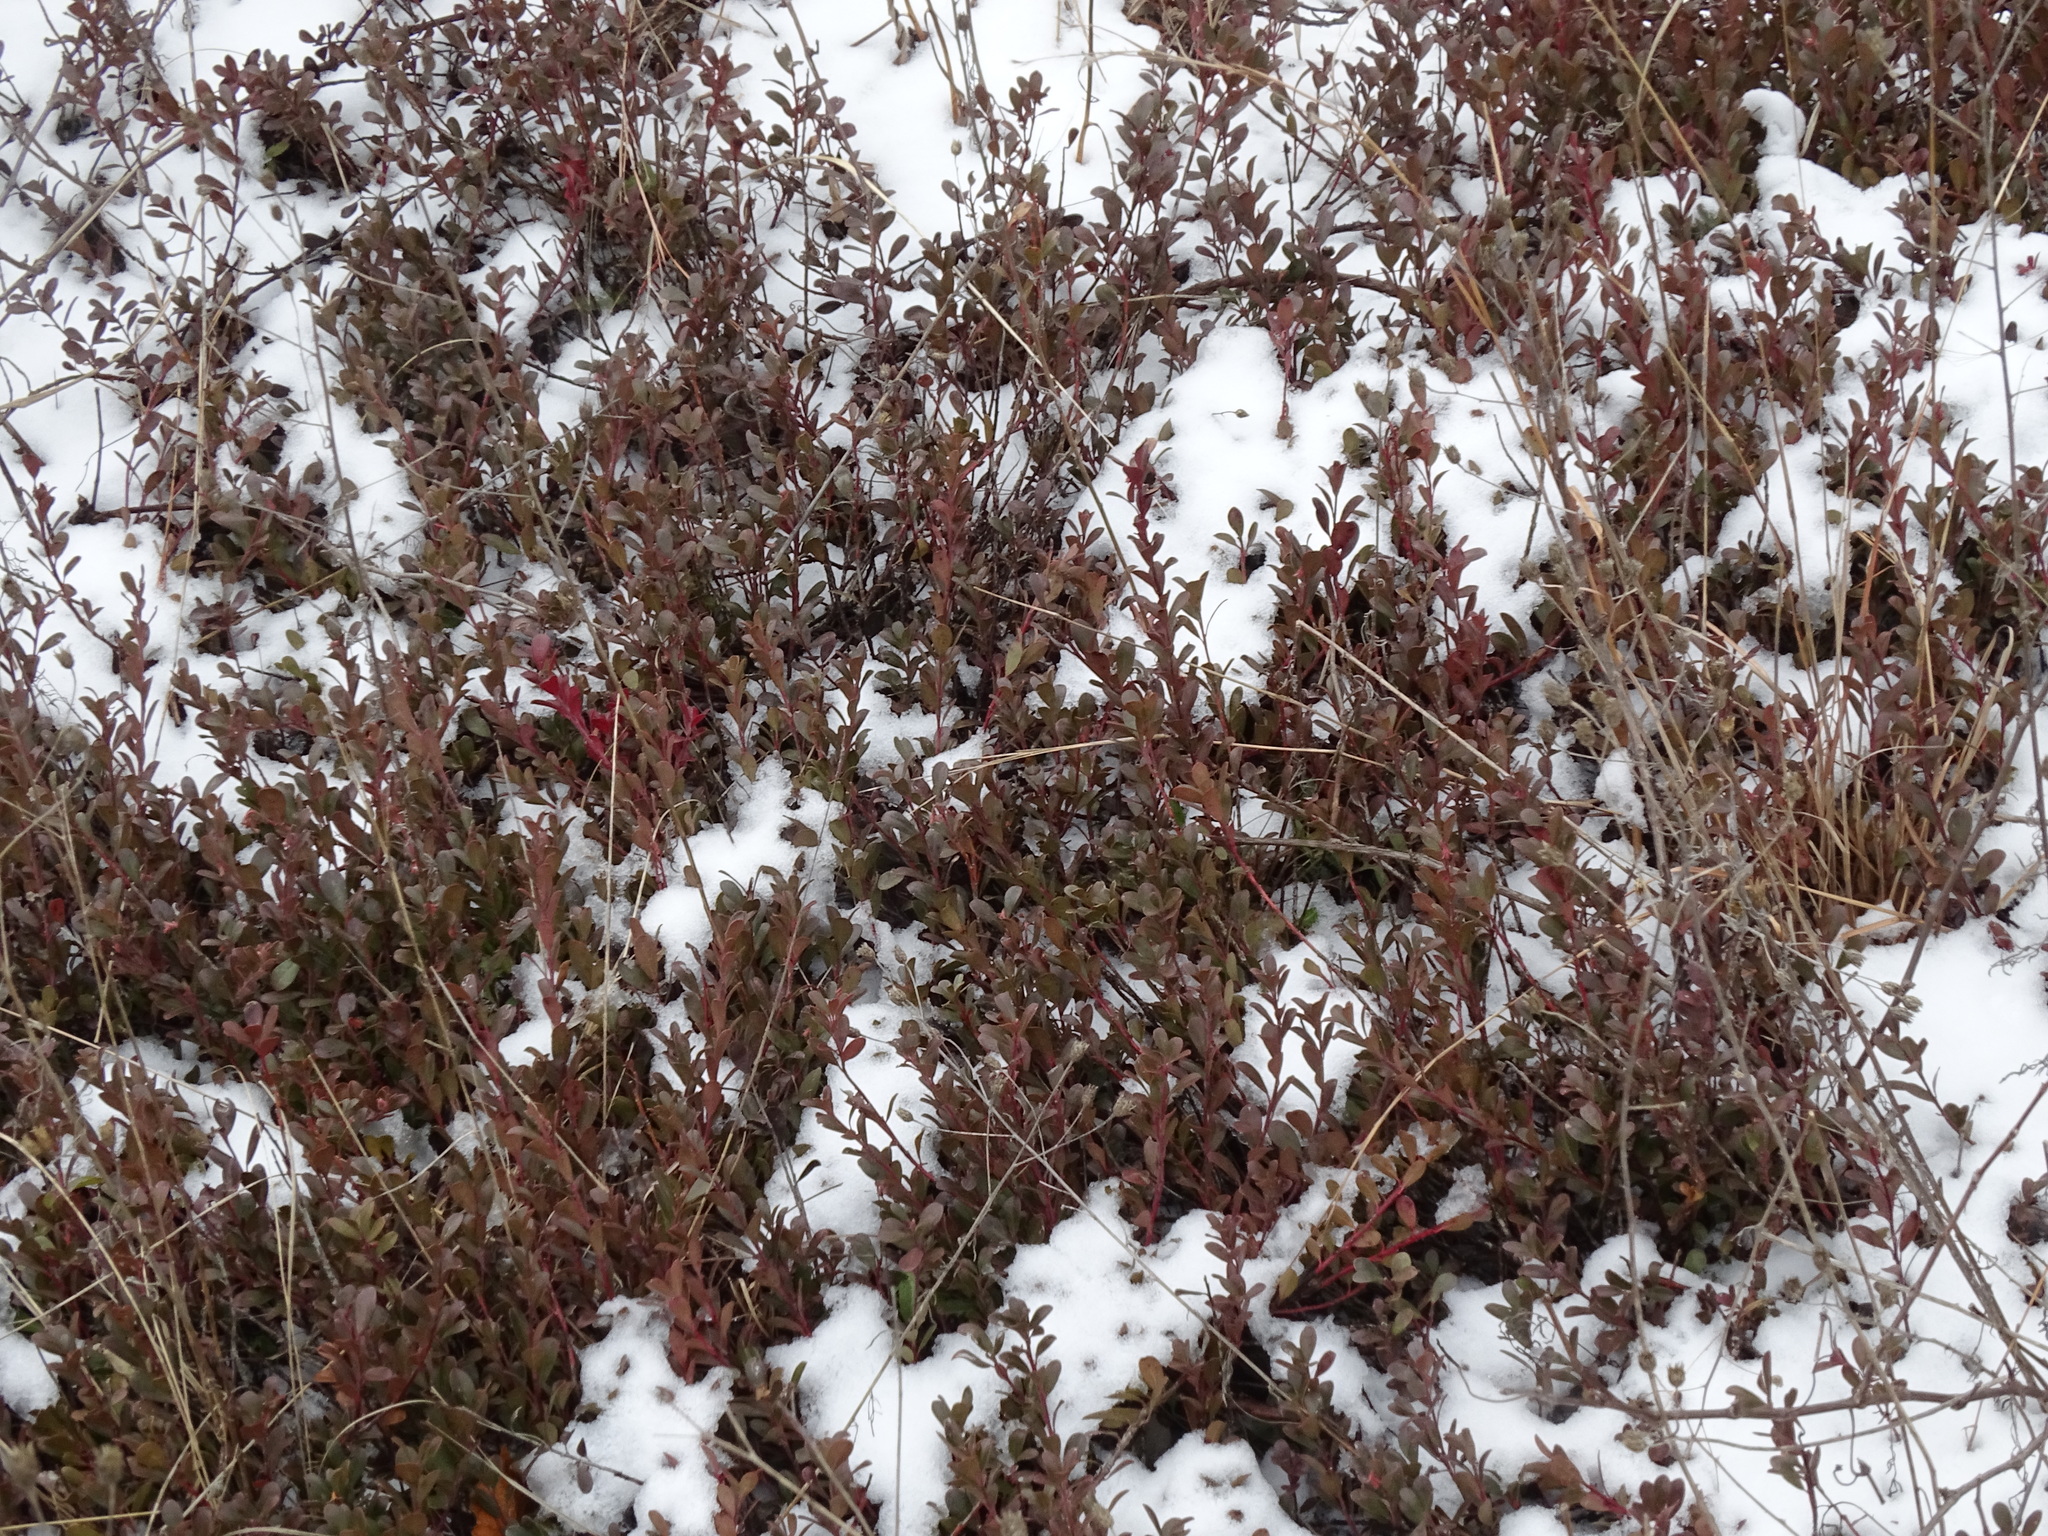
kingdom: Plantae
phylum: Tracheophyta
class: Magnoliopsida
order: Ericales
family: Ericaceae
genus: Arctostaphylos
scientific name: Arctostaphylos uva-ursi
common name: Bearberry
